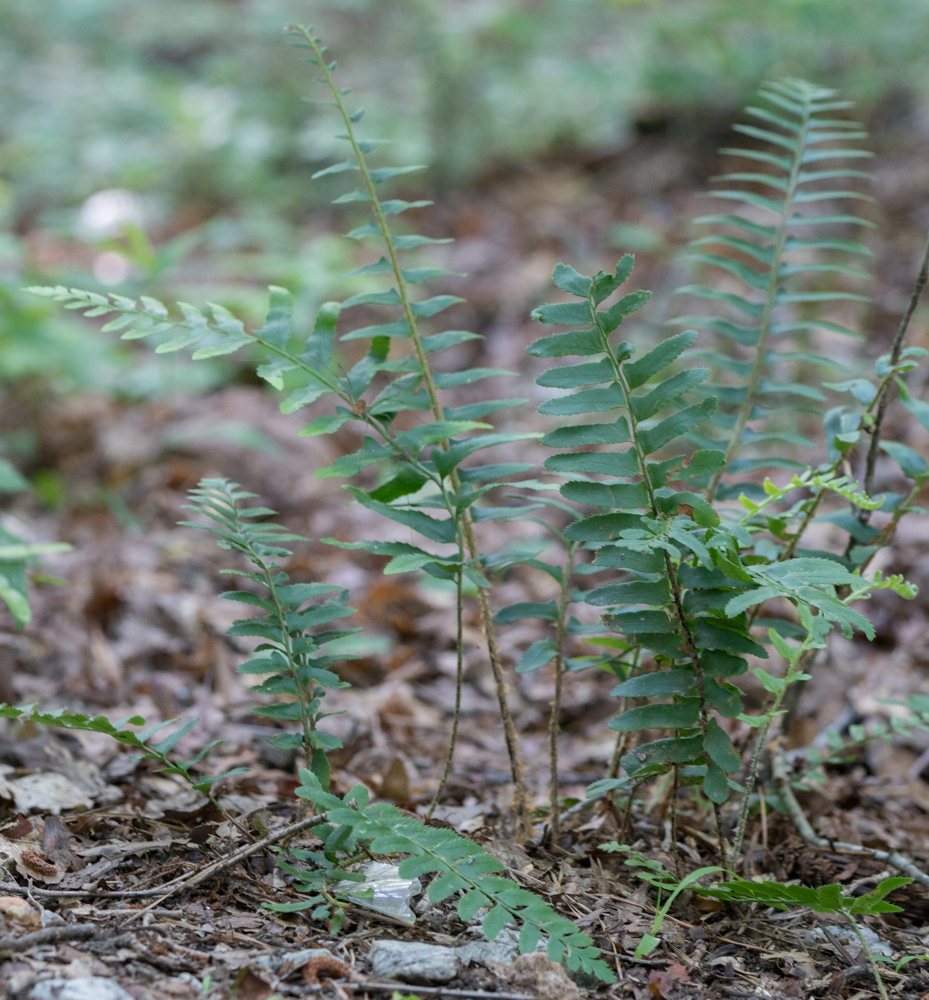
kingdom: Plantae
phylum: Tracheophyta
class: Polypodiopsida
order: Polypodiales
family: Dryopteridaceae
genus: Polystichum
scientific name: Polystichum acrostichoides
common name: Christmas fern
